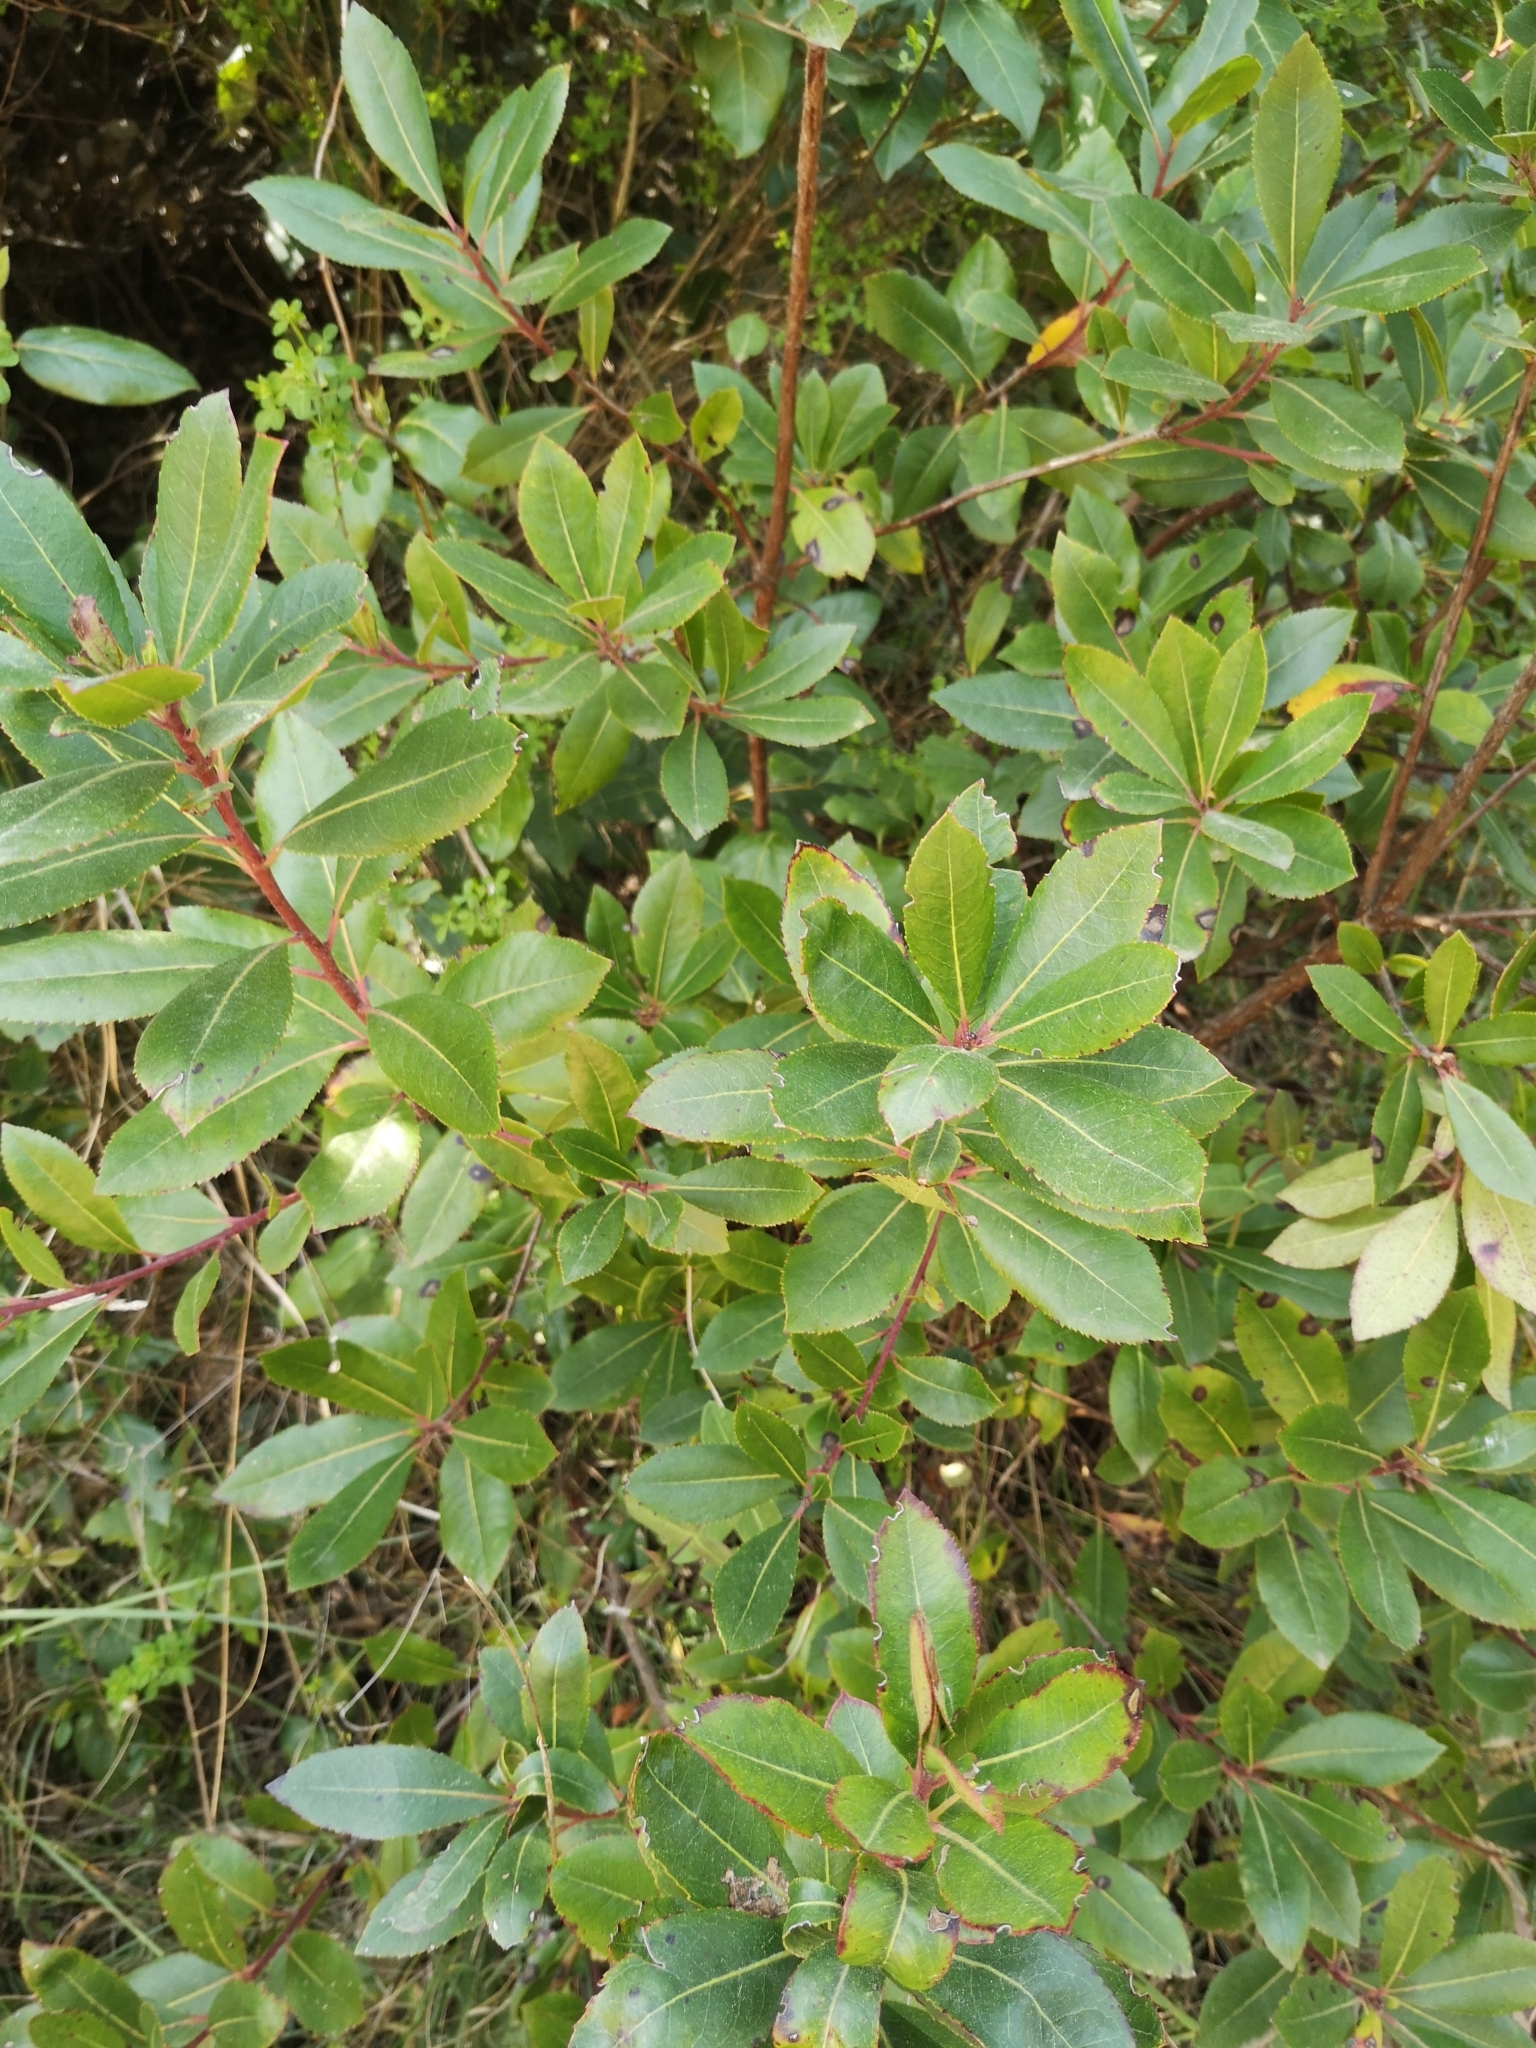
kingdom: Plantae
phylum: Tracheophyta
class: Magnoliopsida
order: Ericales
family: Ericaceae
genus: Arbutus
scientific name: Arbutus unedo
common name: Strawberry-tree
